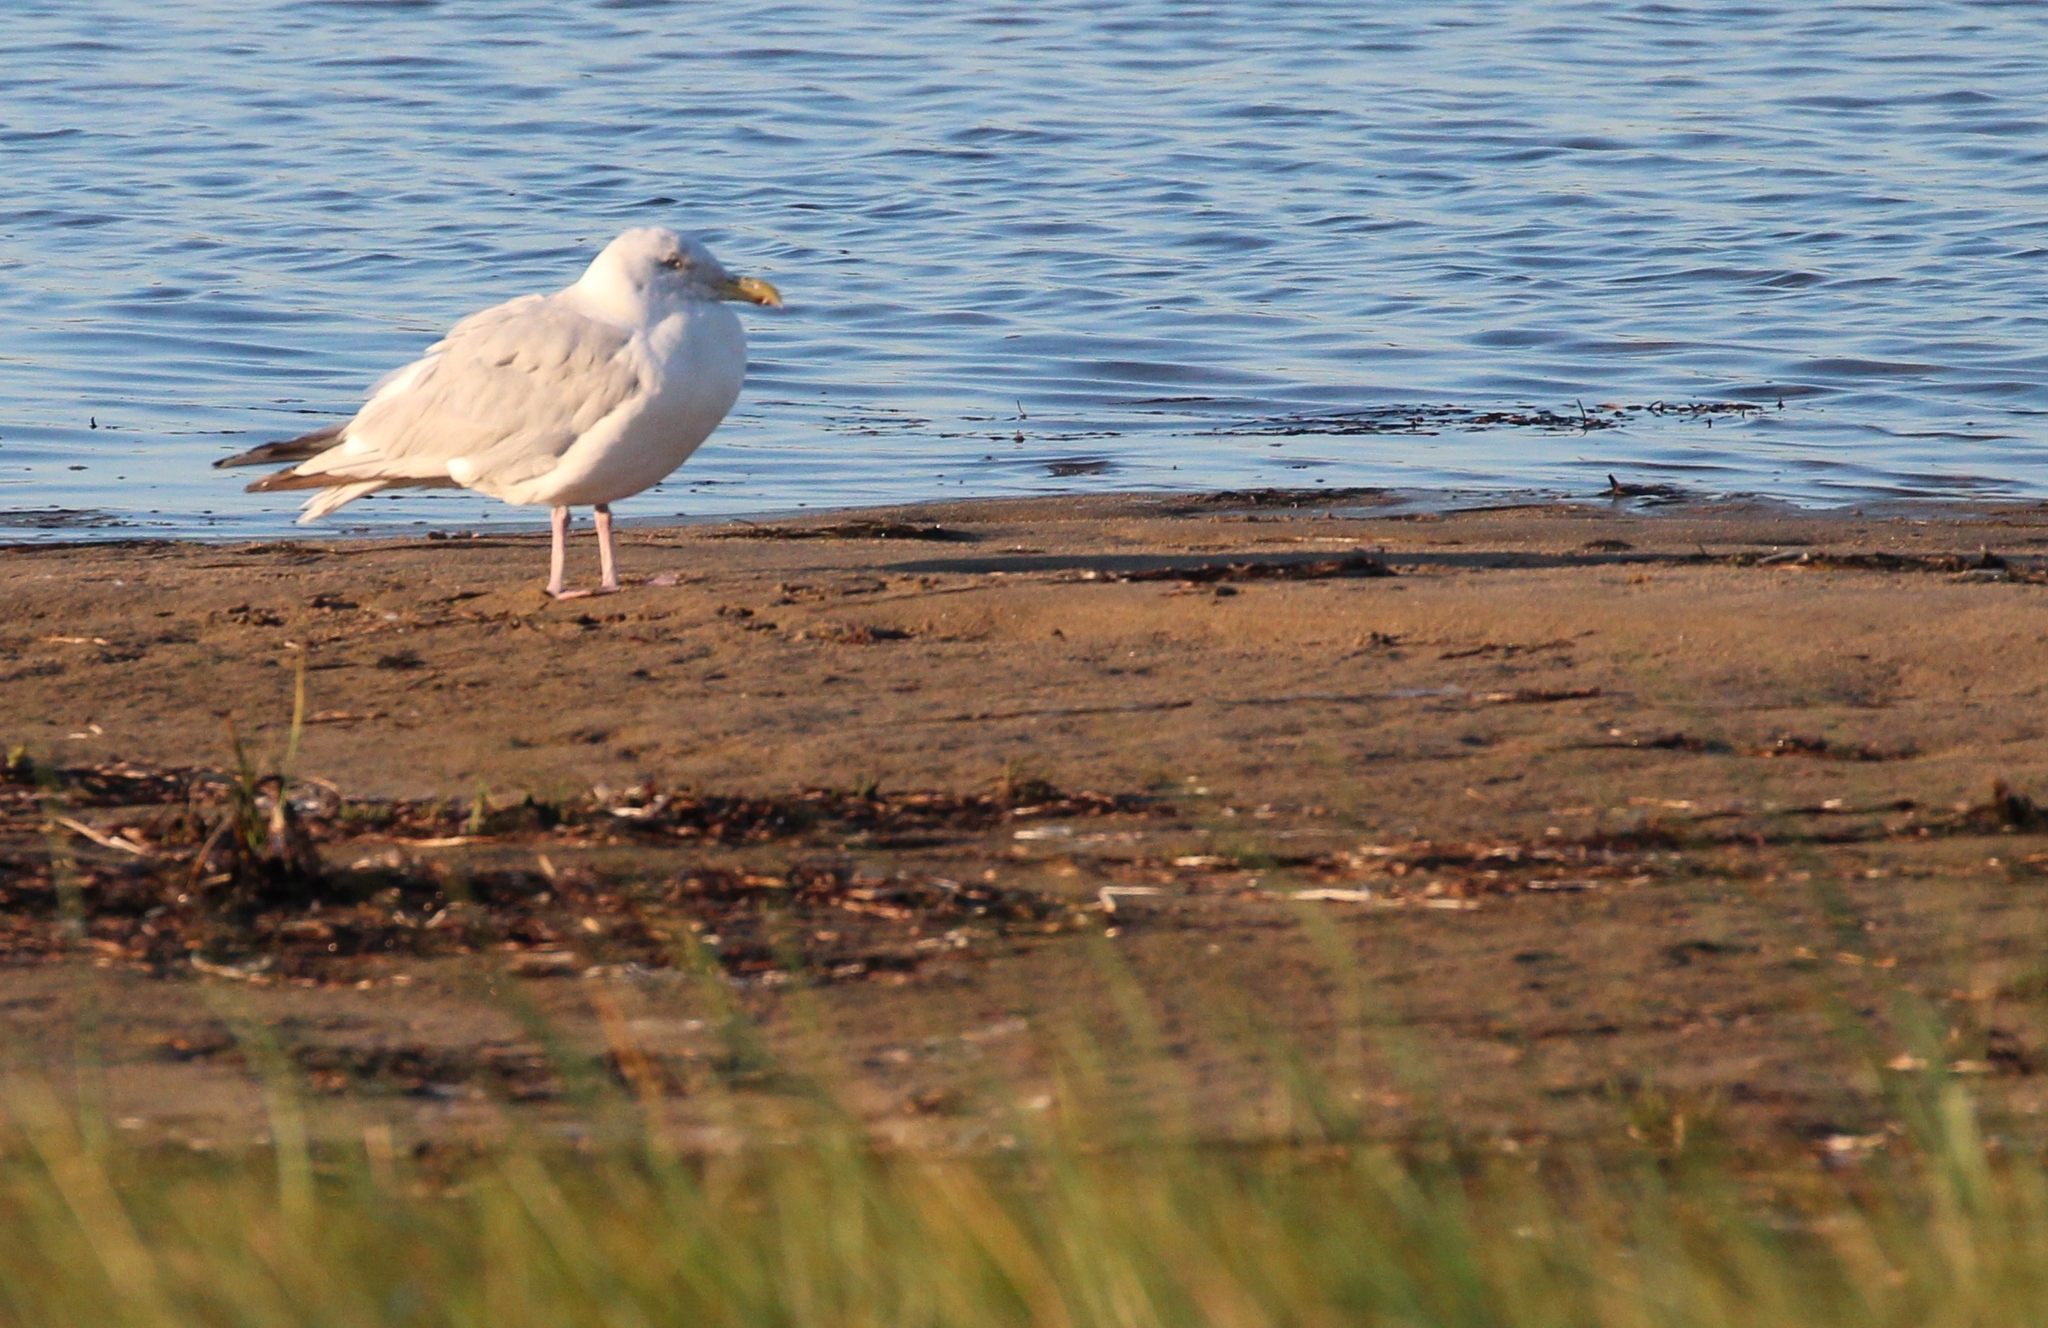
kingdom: Animalia
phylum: Chordata
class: Aves
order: Charadriiformes
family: Laridae
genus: Larus
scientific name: Larus argentatus
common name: Herring gull
